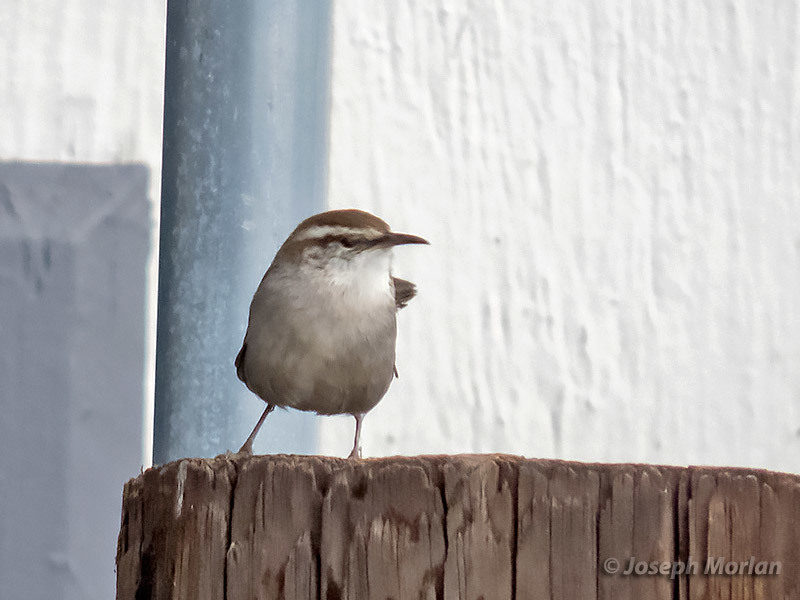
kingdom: Animalia
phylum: Chordata
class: Aves
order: Passeriformes
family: Troglodytidae
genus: Thryomanes
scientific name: Thryomanes bewickii
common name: Bewick's wren
